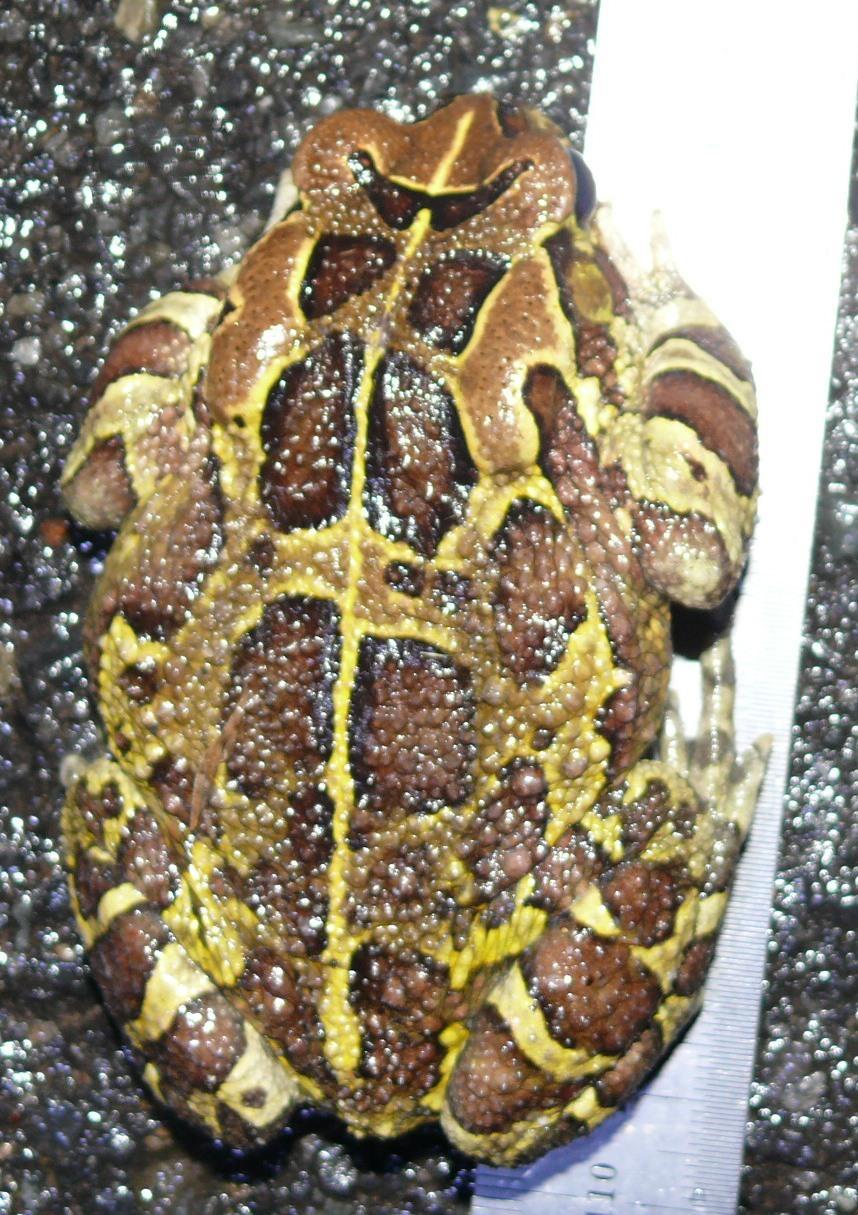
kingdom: Animalia
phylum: Chordata
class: Amphibia
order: Anura
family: Bufonidae
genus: Sclerophrys
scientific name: Sclerophrys pantherina
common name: Panther toad
